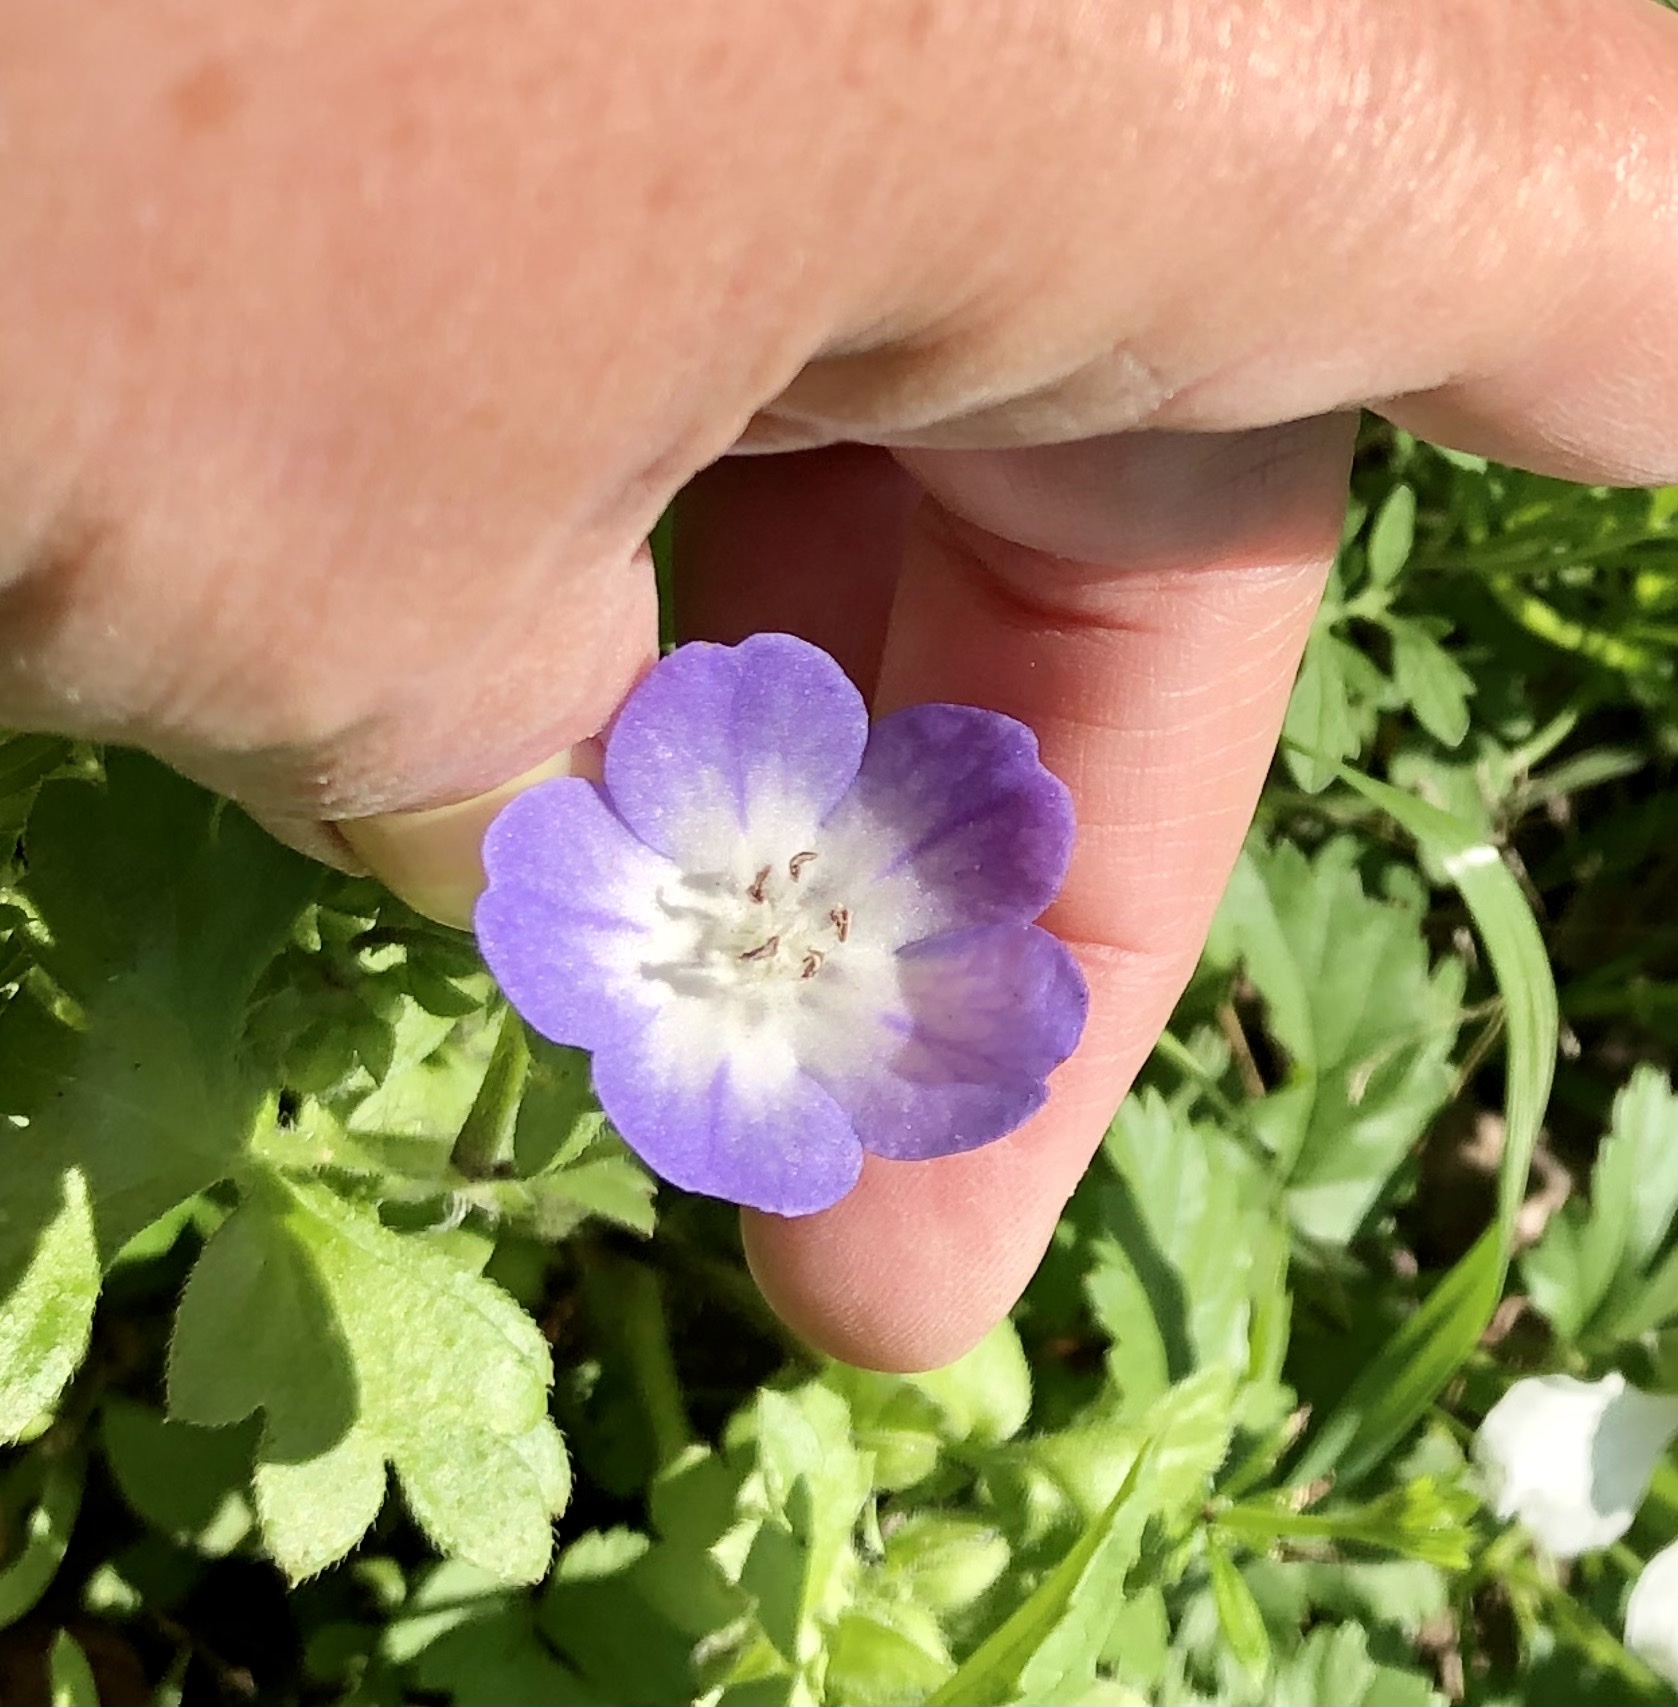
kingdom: Plantae
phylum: Tracheophyta
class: Magnoliopsida
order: Boraginales
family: Hydrophyllaceae
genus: Nemophila
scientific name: Nemophila phacelioides
